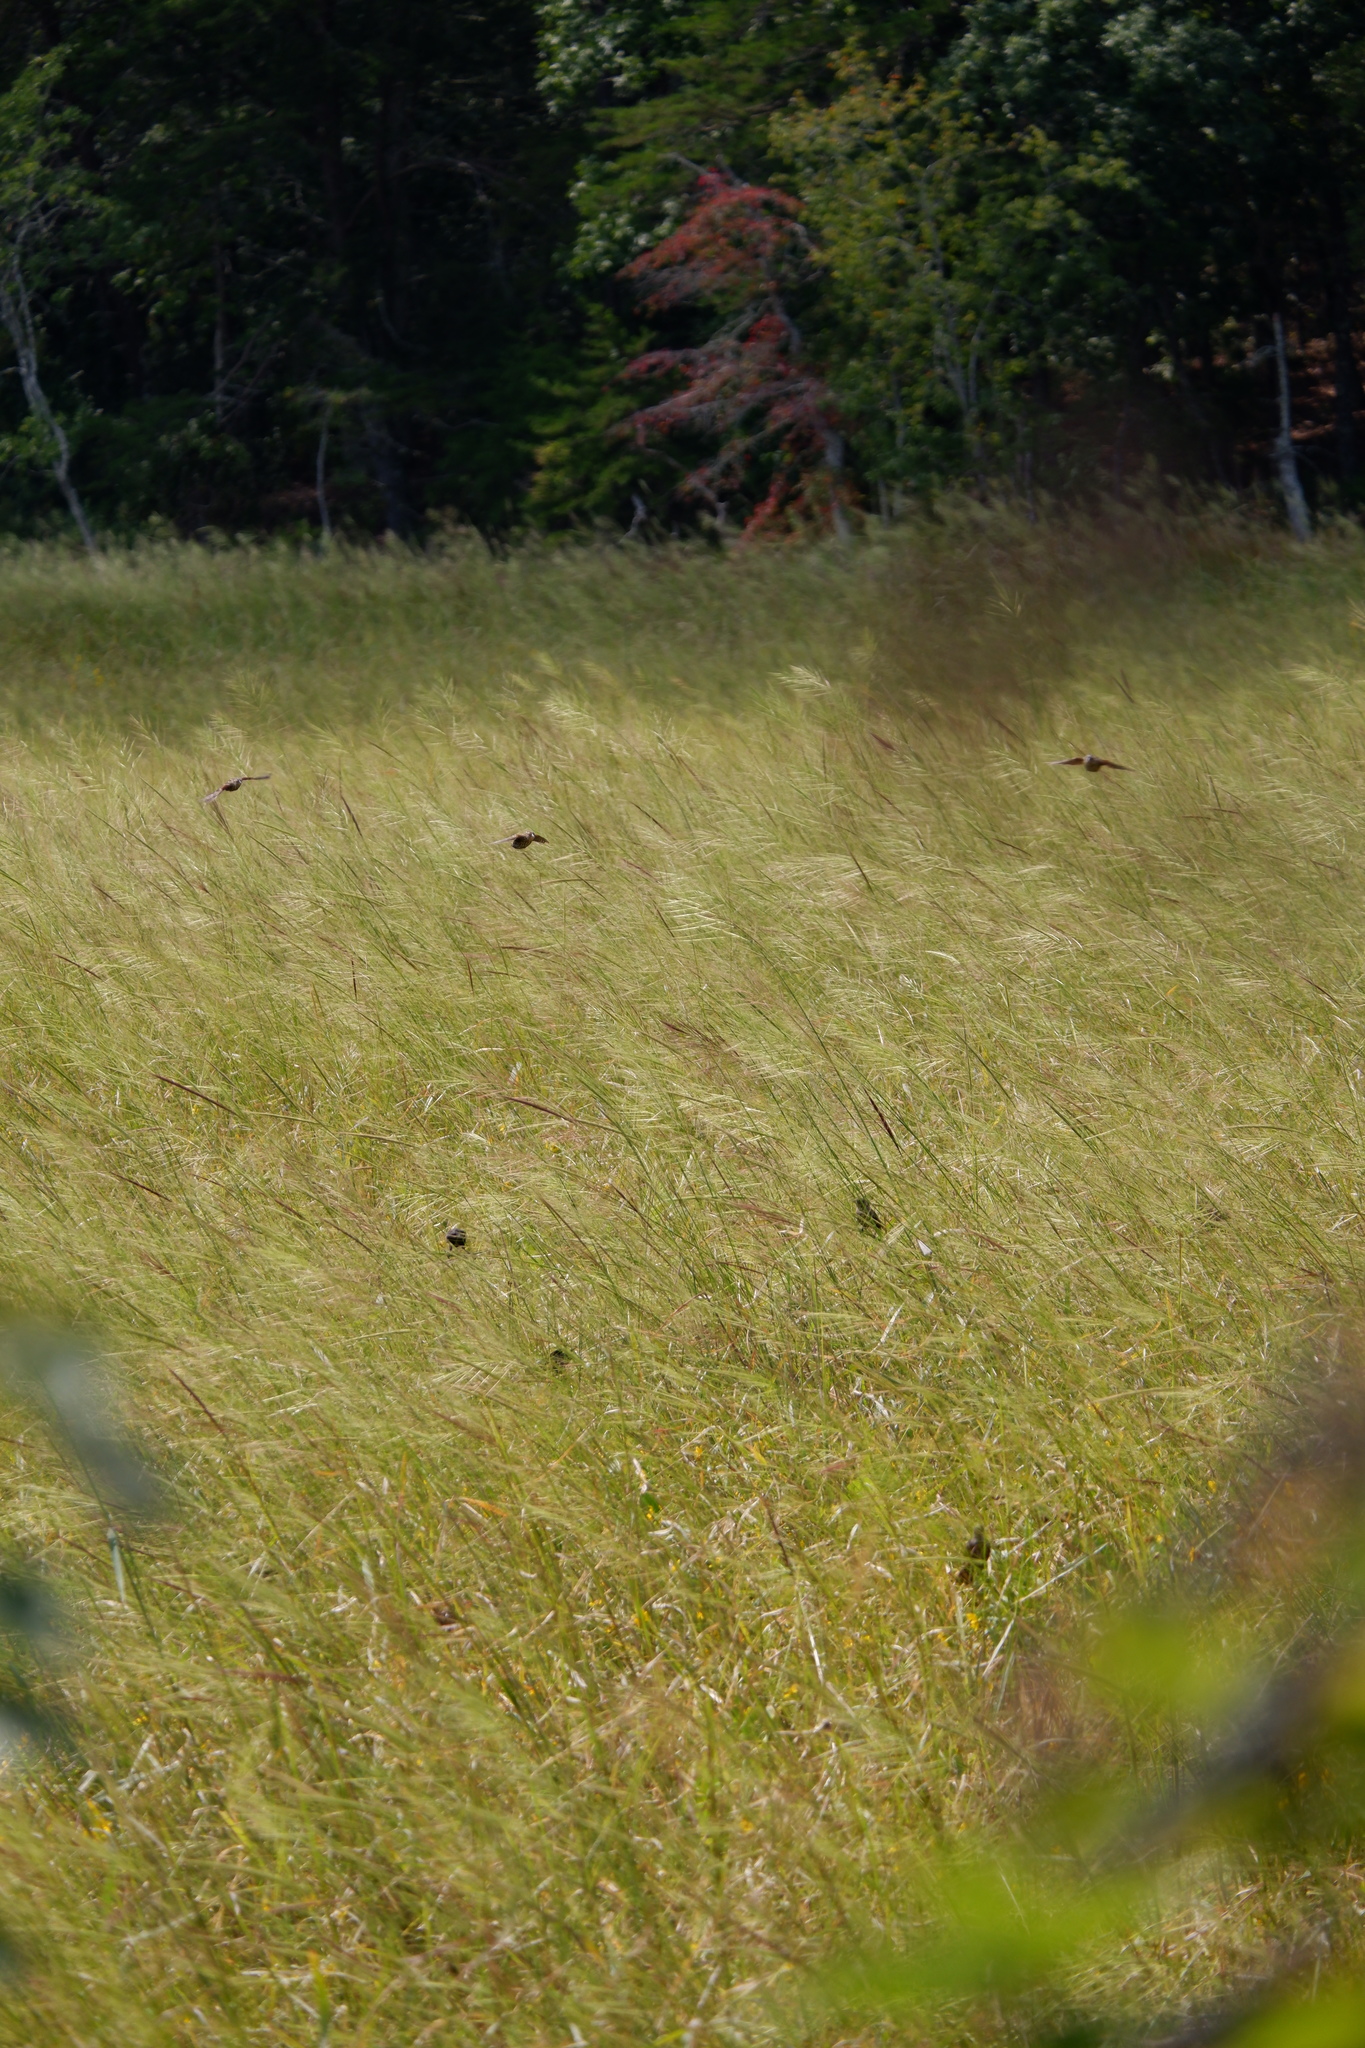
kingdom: Animalia
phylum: Chordata
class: Aves
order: Passeriformes
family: Icteridae
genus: Agelaius
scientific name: Agelaius phoeniceus
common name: Red-winged blackbird
